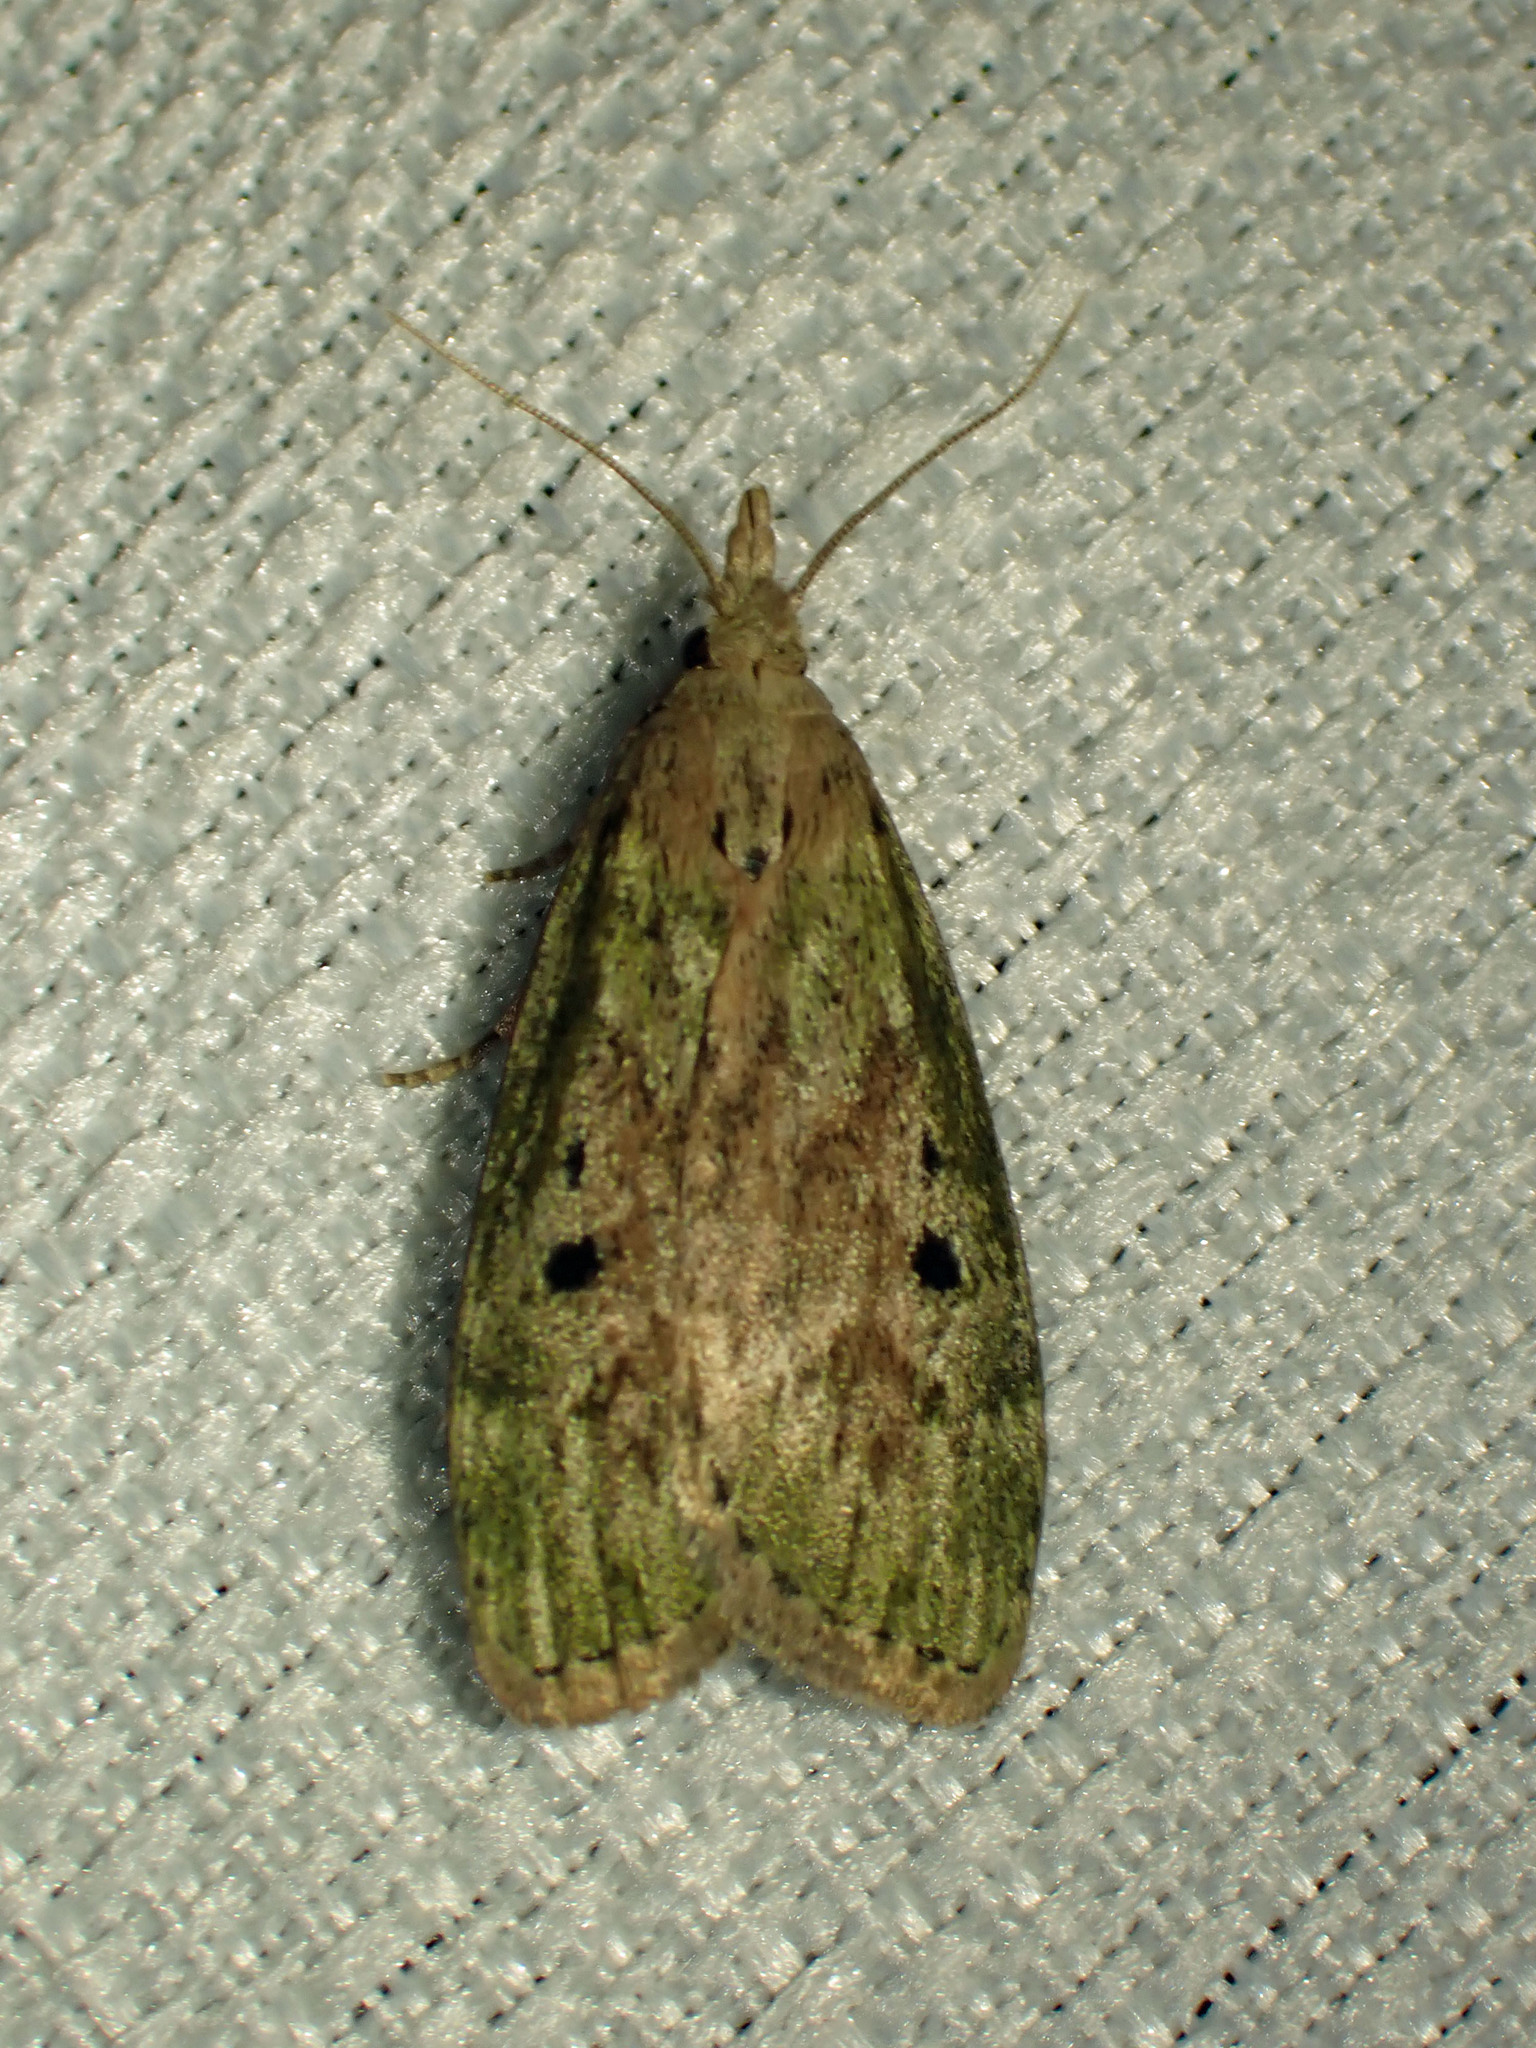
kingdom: Animalia
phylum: Arthropoda
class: Insecta
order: Lepidoptera
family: Pyralidae
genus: Aphomia
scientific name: Aphomia sociella
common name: Bee moth
